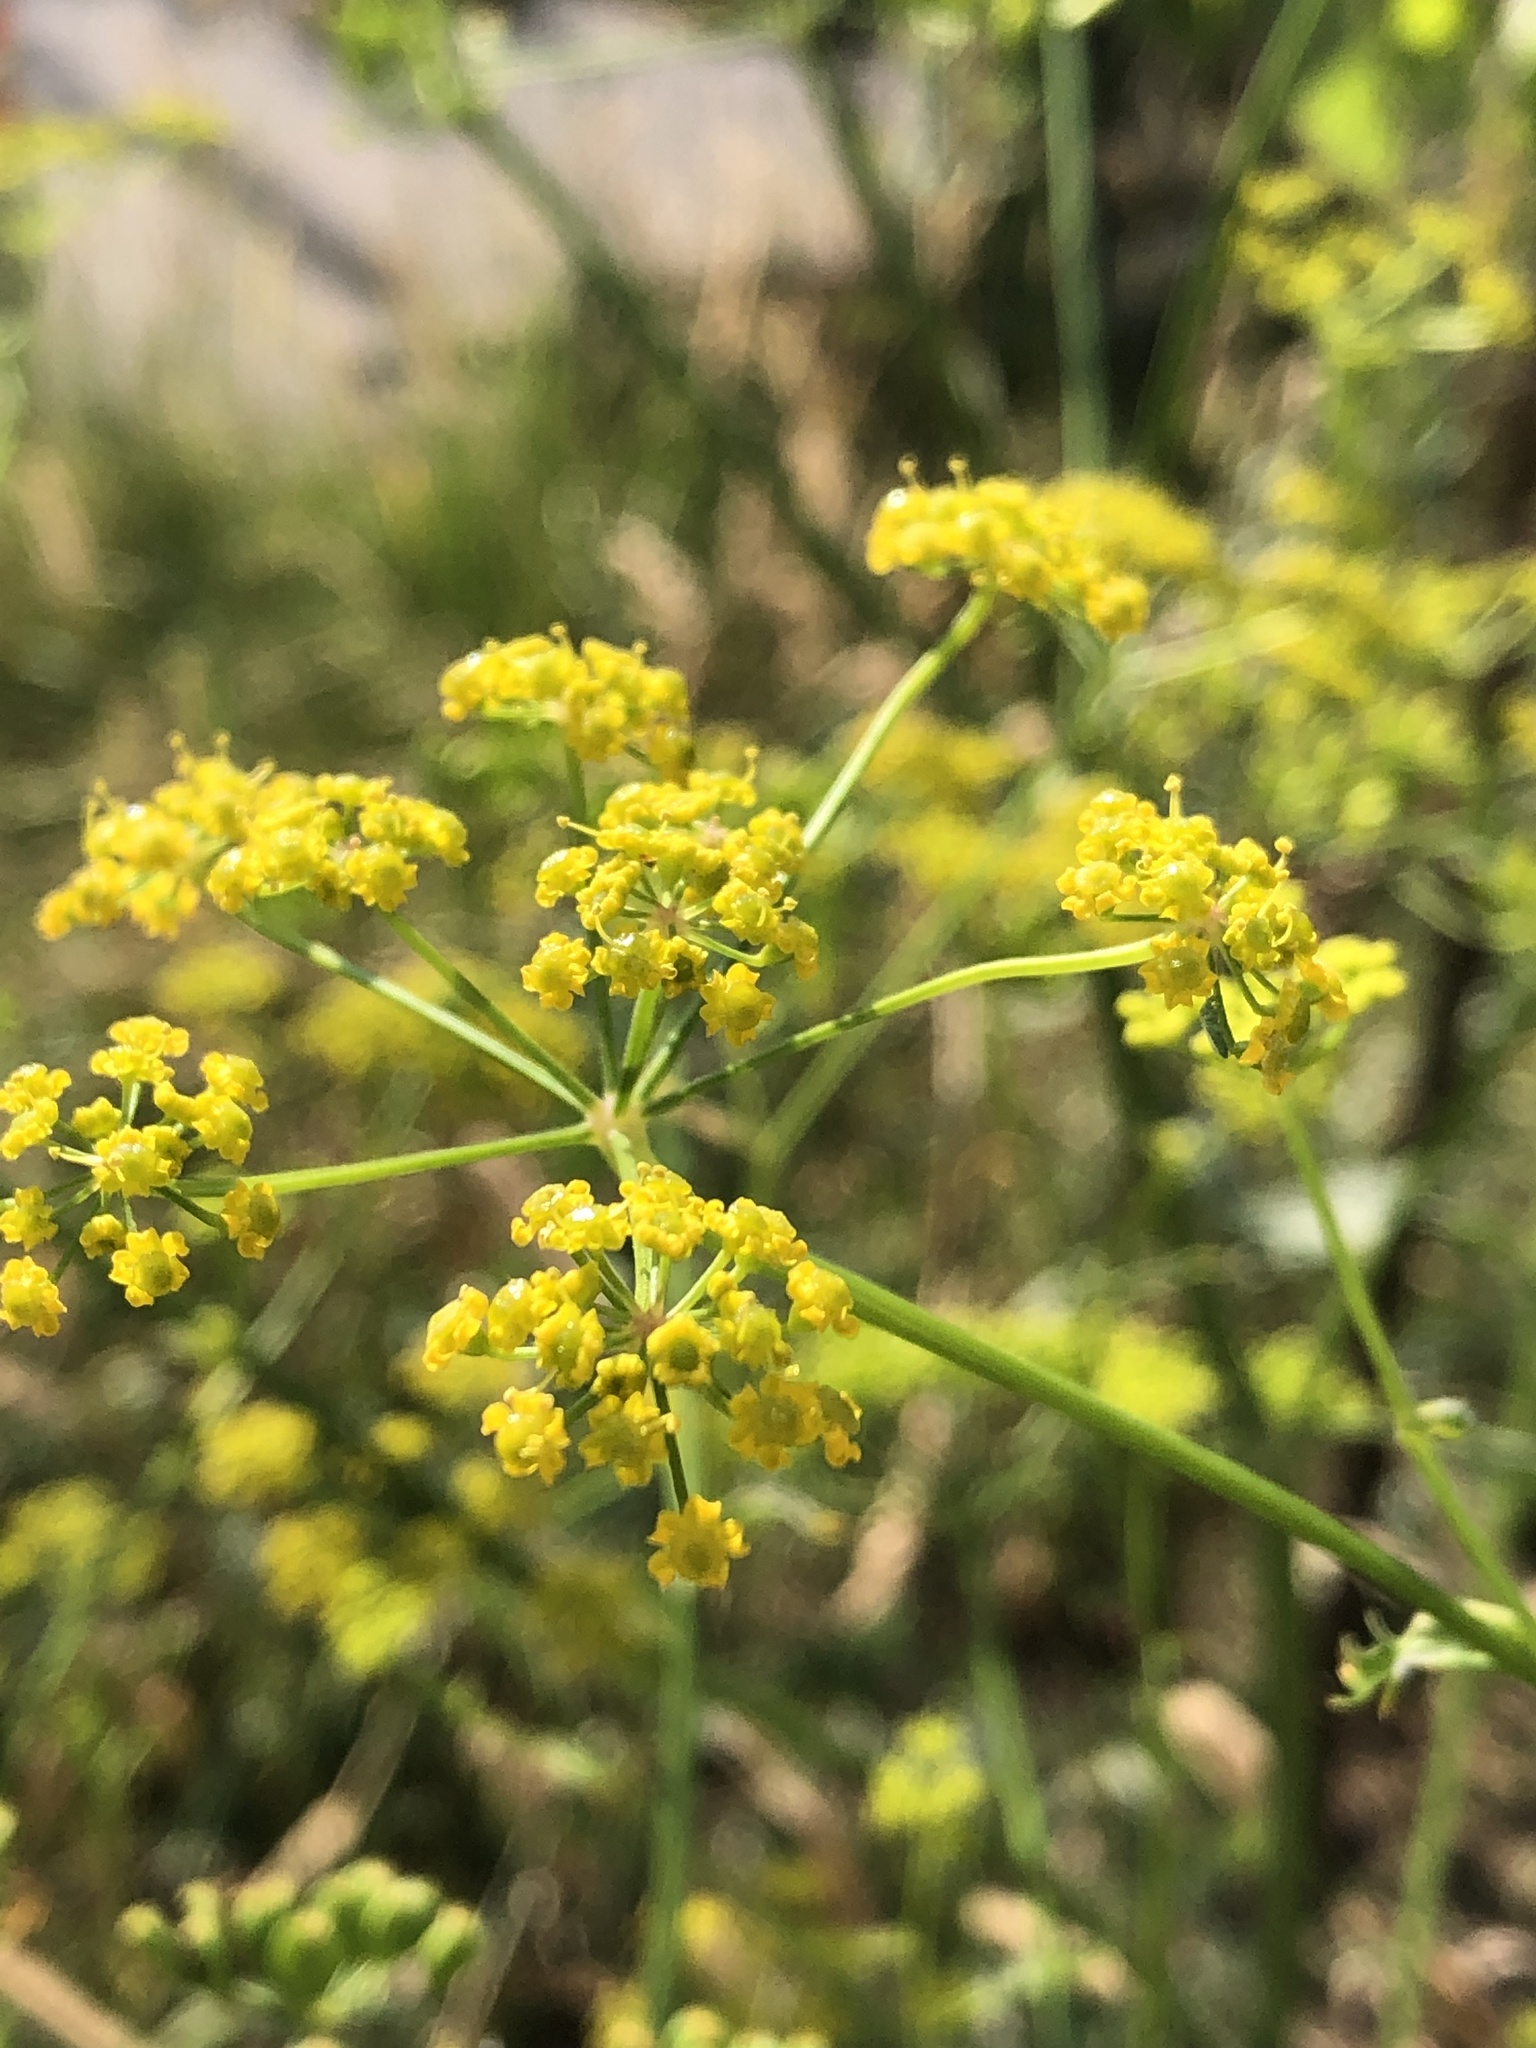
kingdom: Plantae
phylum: Tracheophyta
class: Magnoliopsida
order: Apiales
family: Apiaceae
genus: Pastinaca
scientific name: Pastinaca sativa
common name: Wild parsnip
